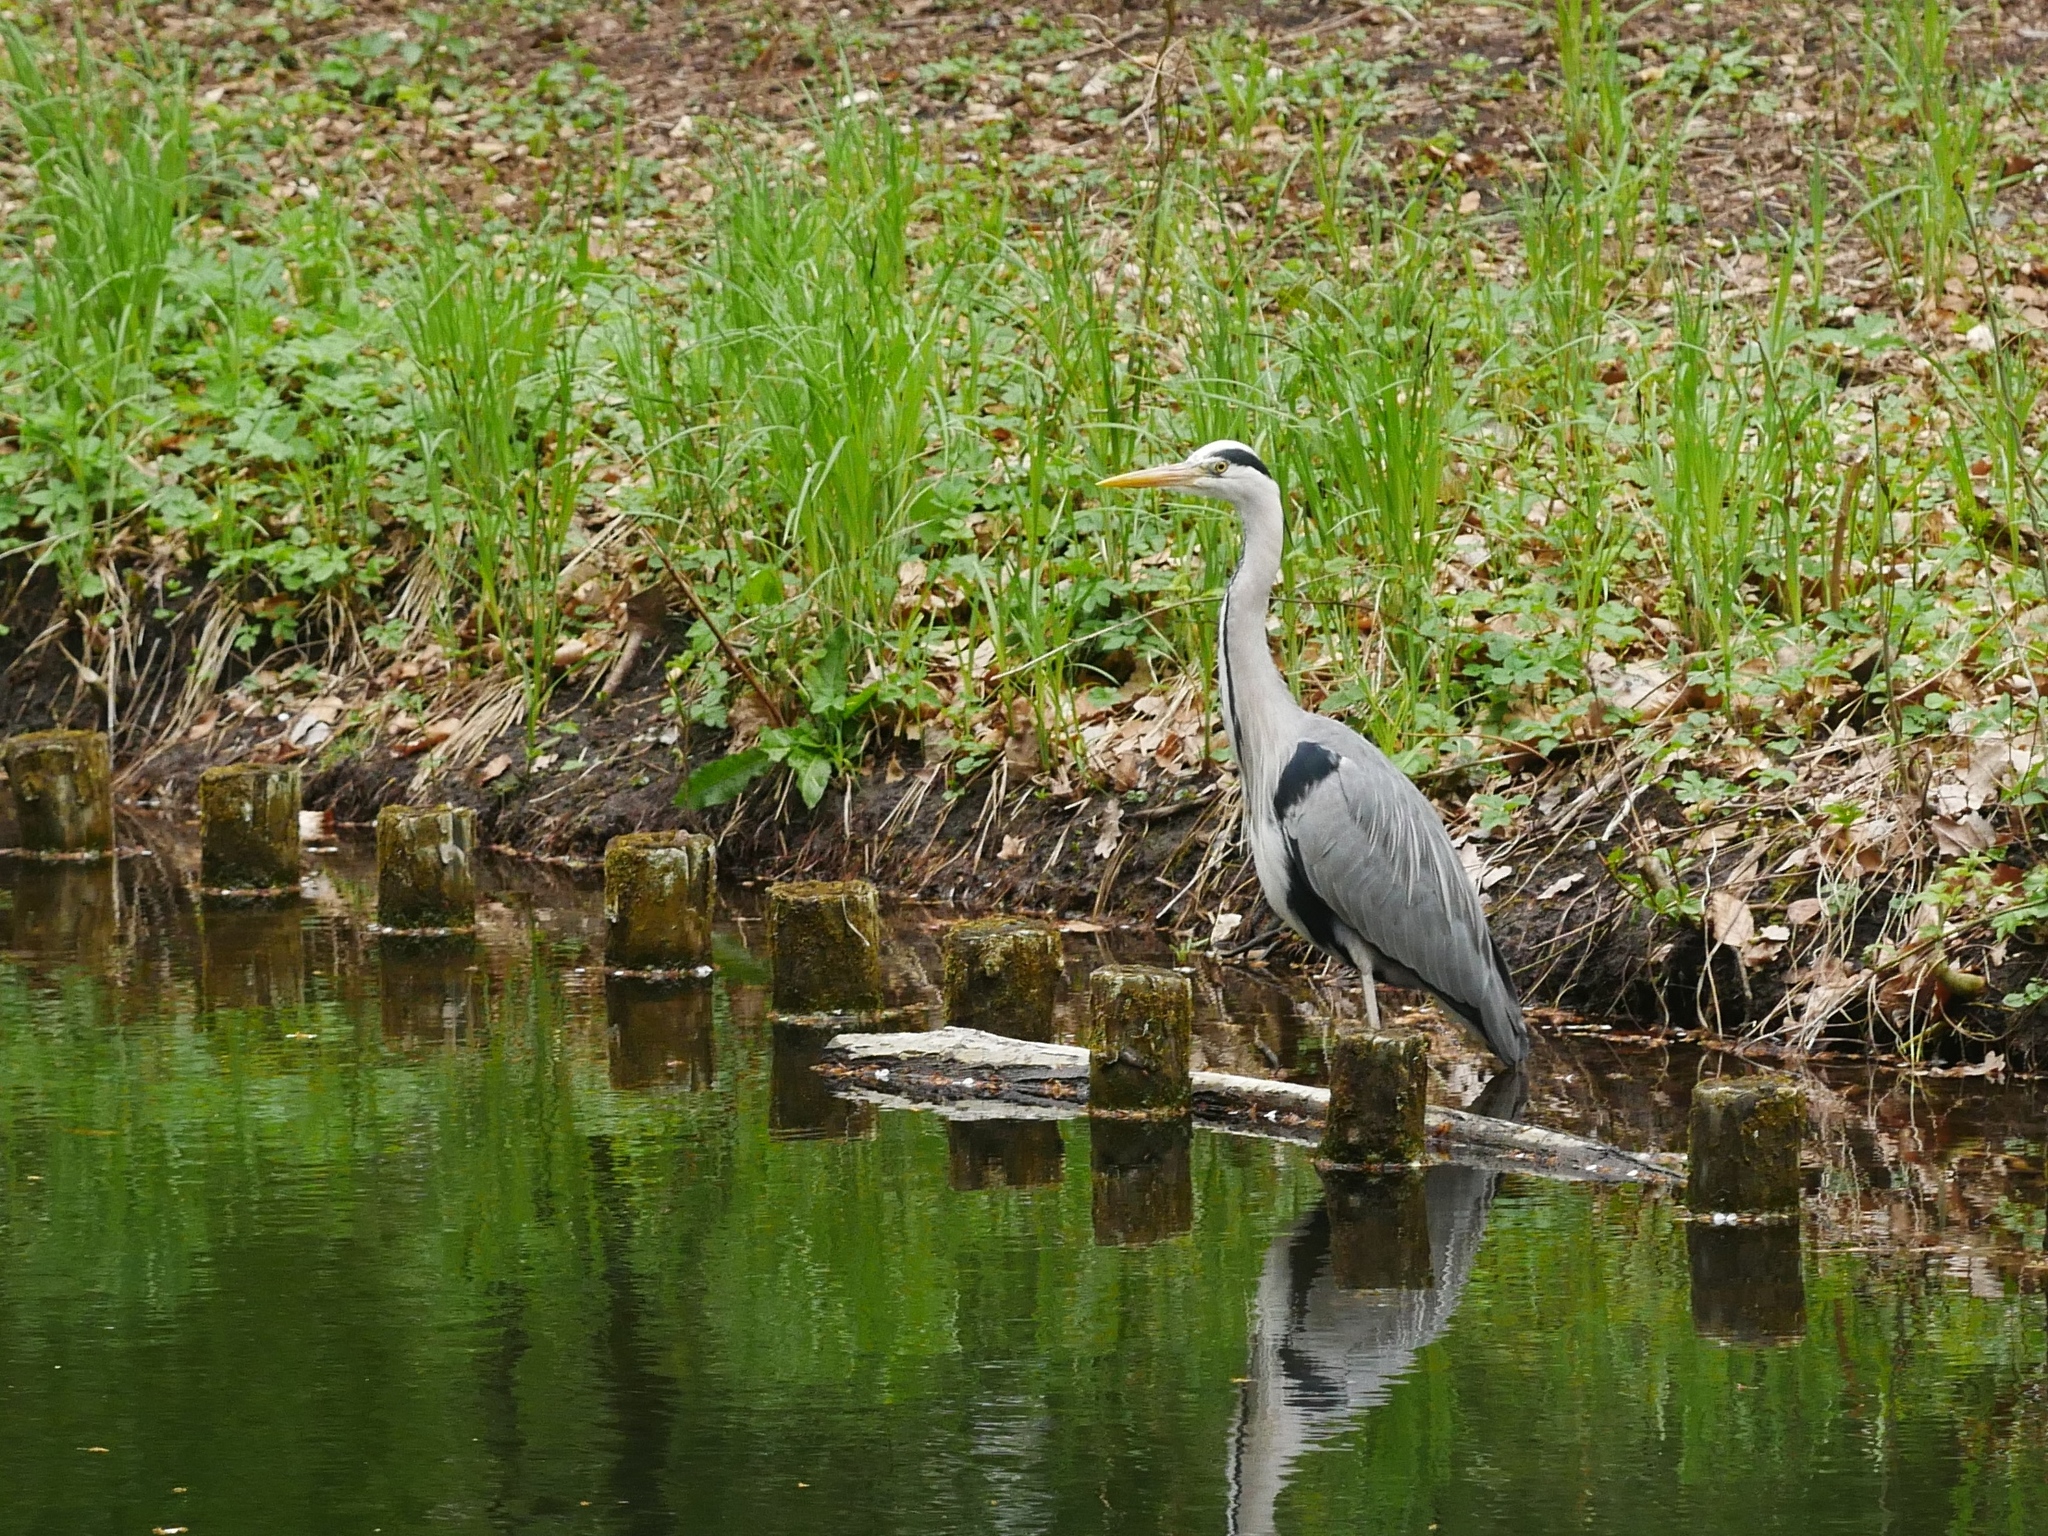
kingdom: Animalia
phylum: Chordata
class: Aves
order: Pelecaniformes
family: Ardeidae
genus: Ardea
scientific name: Ardea cinerea
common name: Grey heron
